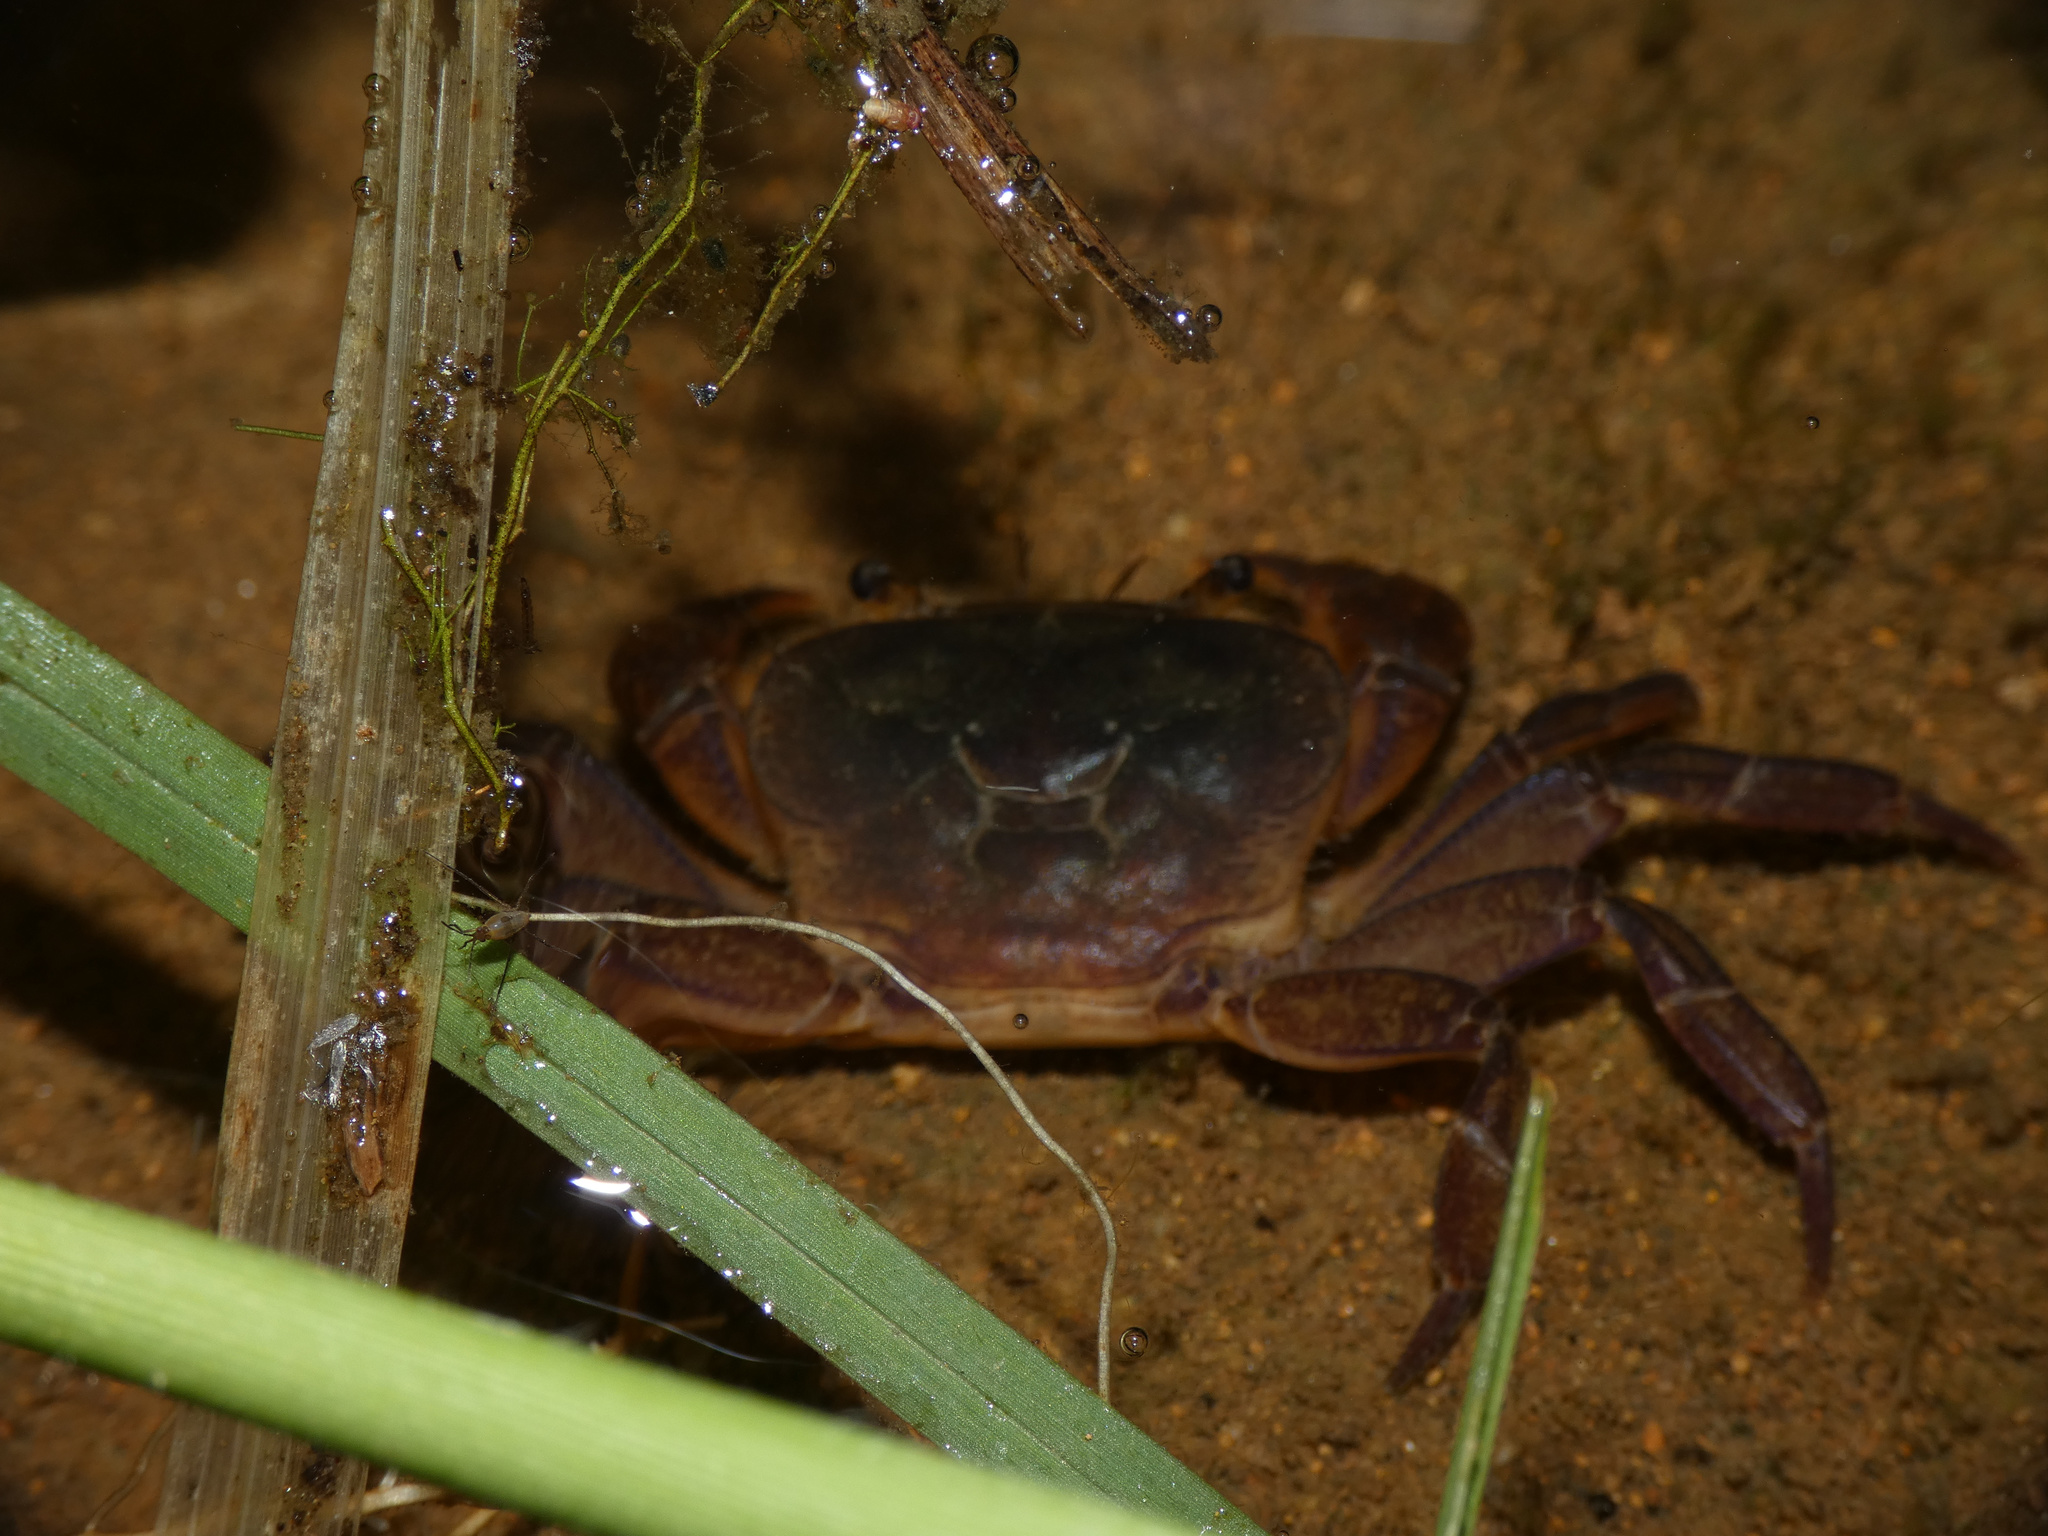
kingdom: Animalia
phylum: Arthropoda
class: Malacostraca
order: Decapoda
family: Potamonautidae
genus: Potamonautes
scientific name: Potamonautes mutareensis
